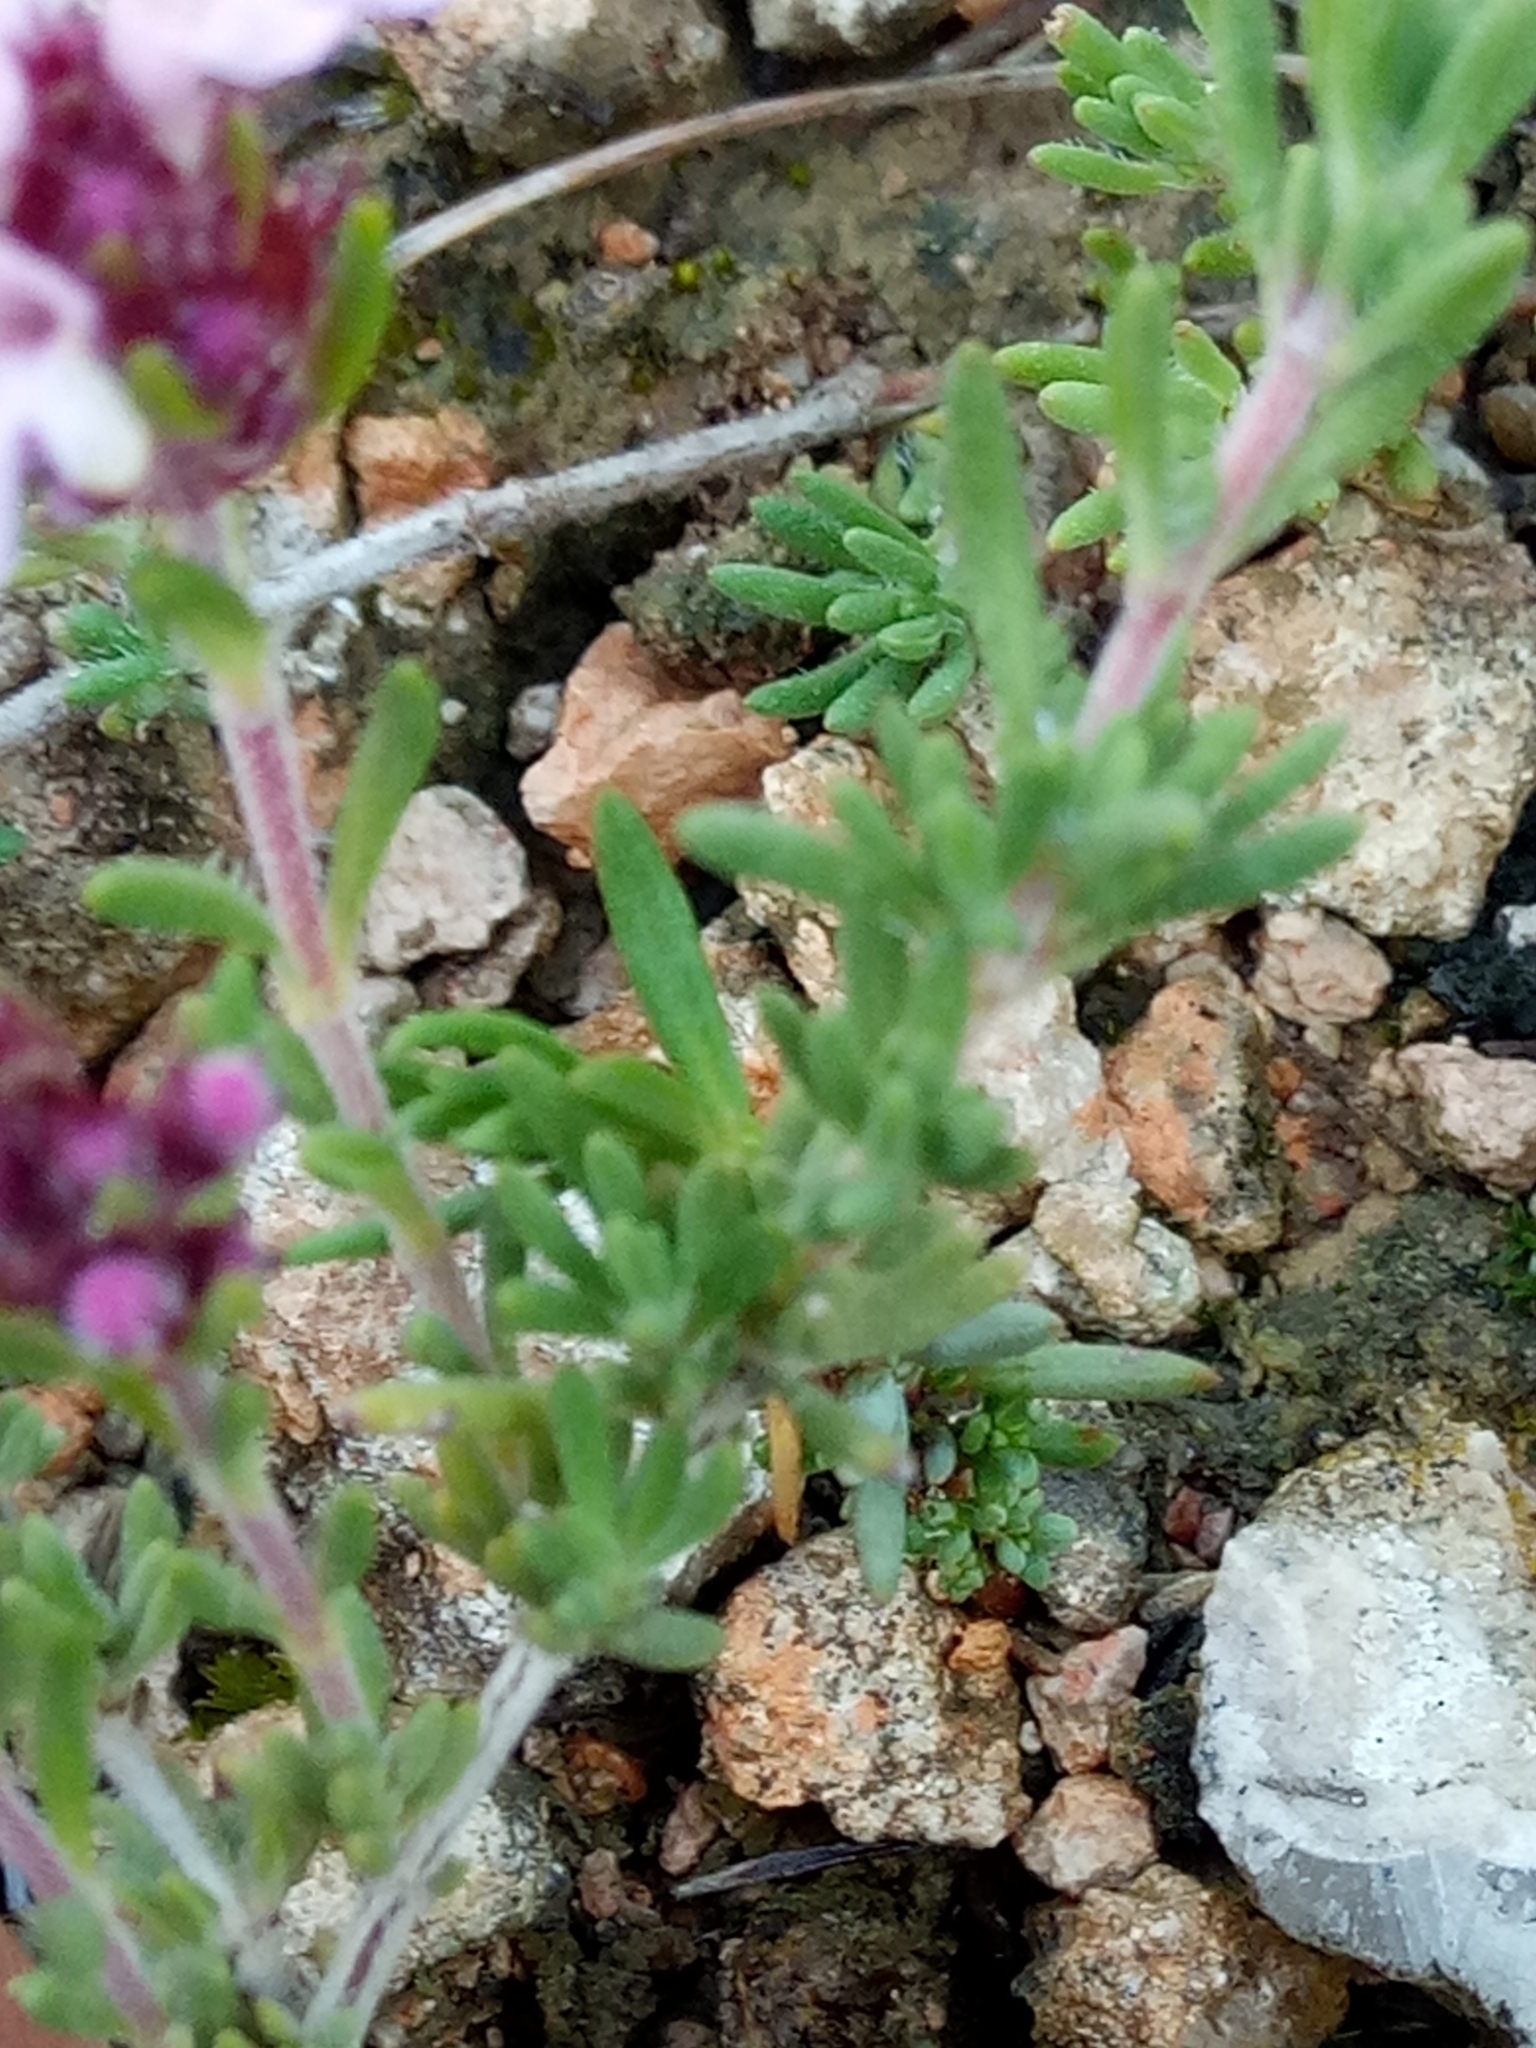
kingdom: Plantae
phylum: Tracheophyta
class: Magnoliopsida
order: Lamiales
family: Lamiaceae
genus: Thymus
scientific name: Thymus willdenowii
